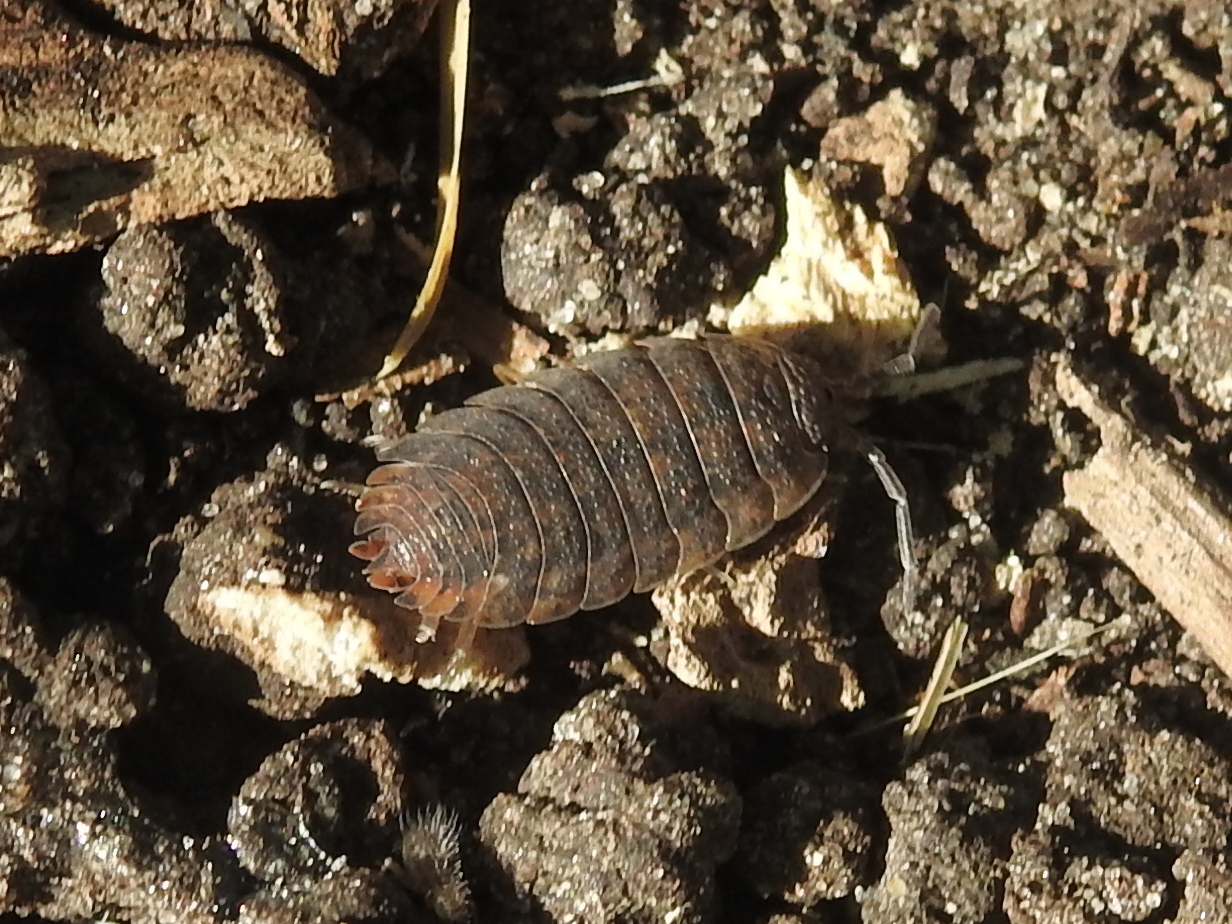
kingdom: Animalia
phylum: Arthropoda
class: Malacostraca
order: Isopoda
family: Porcellionidae
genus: Porcellio
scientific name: Porcellio scaber
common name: Common rough woodlouse
